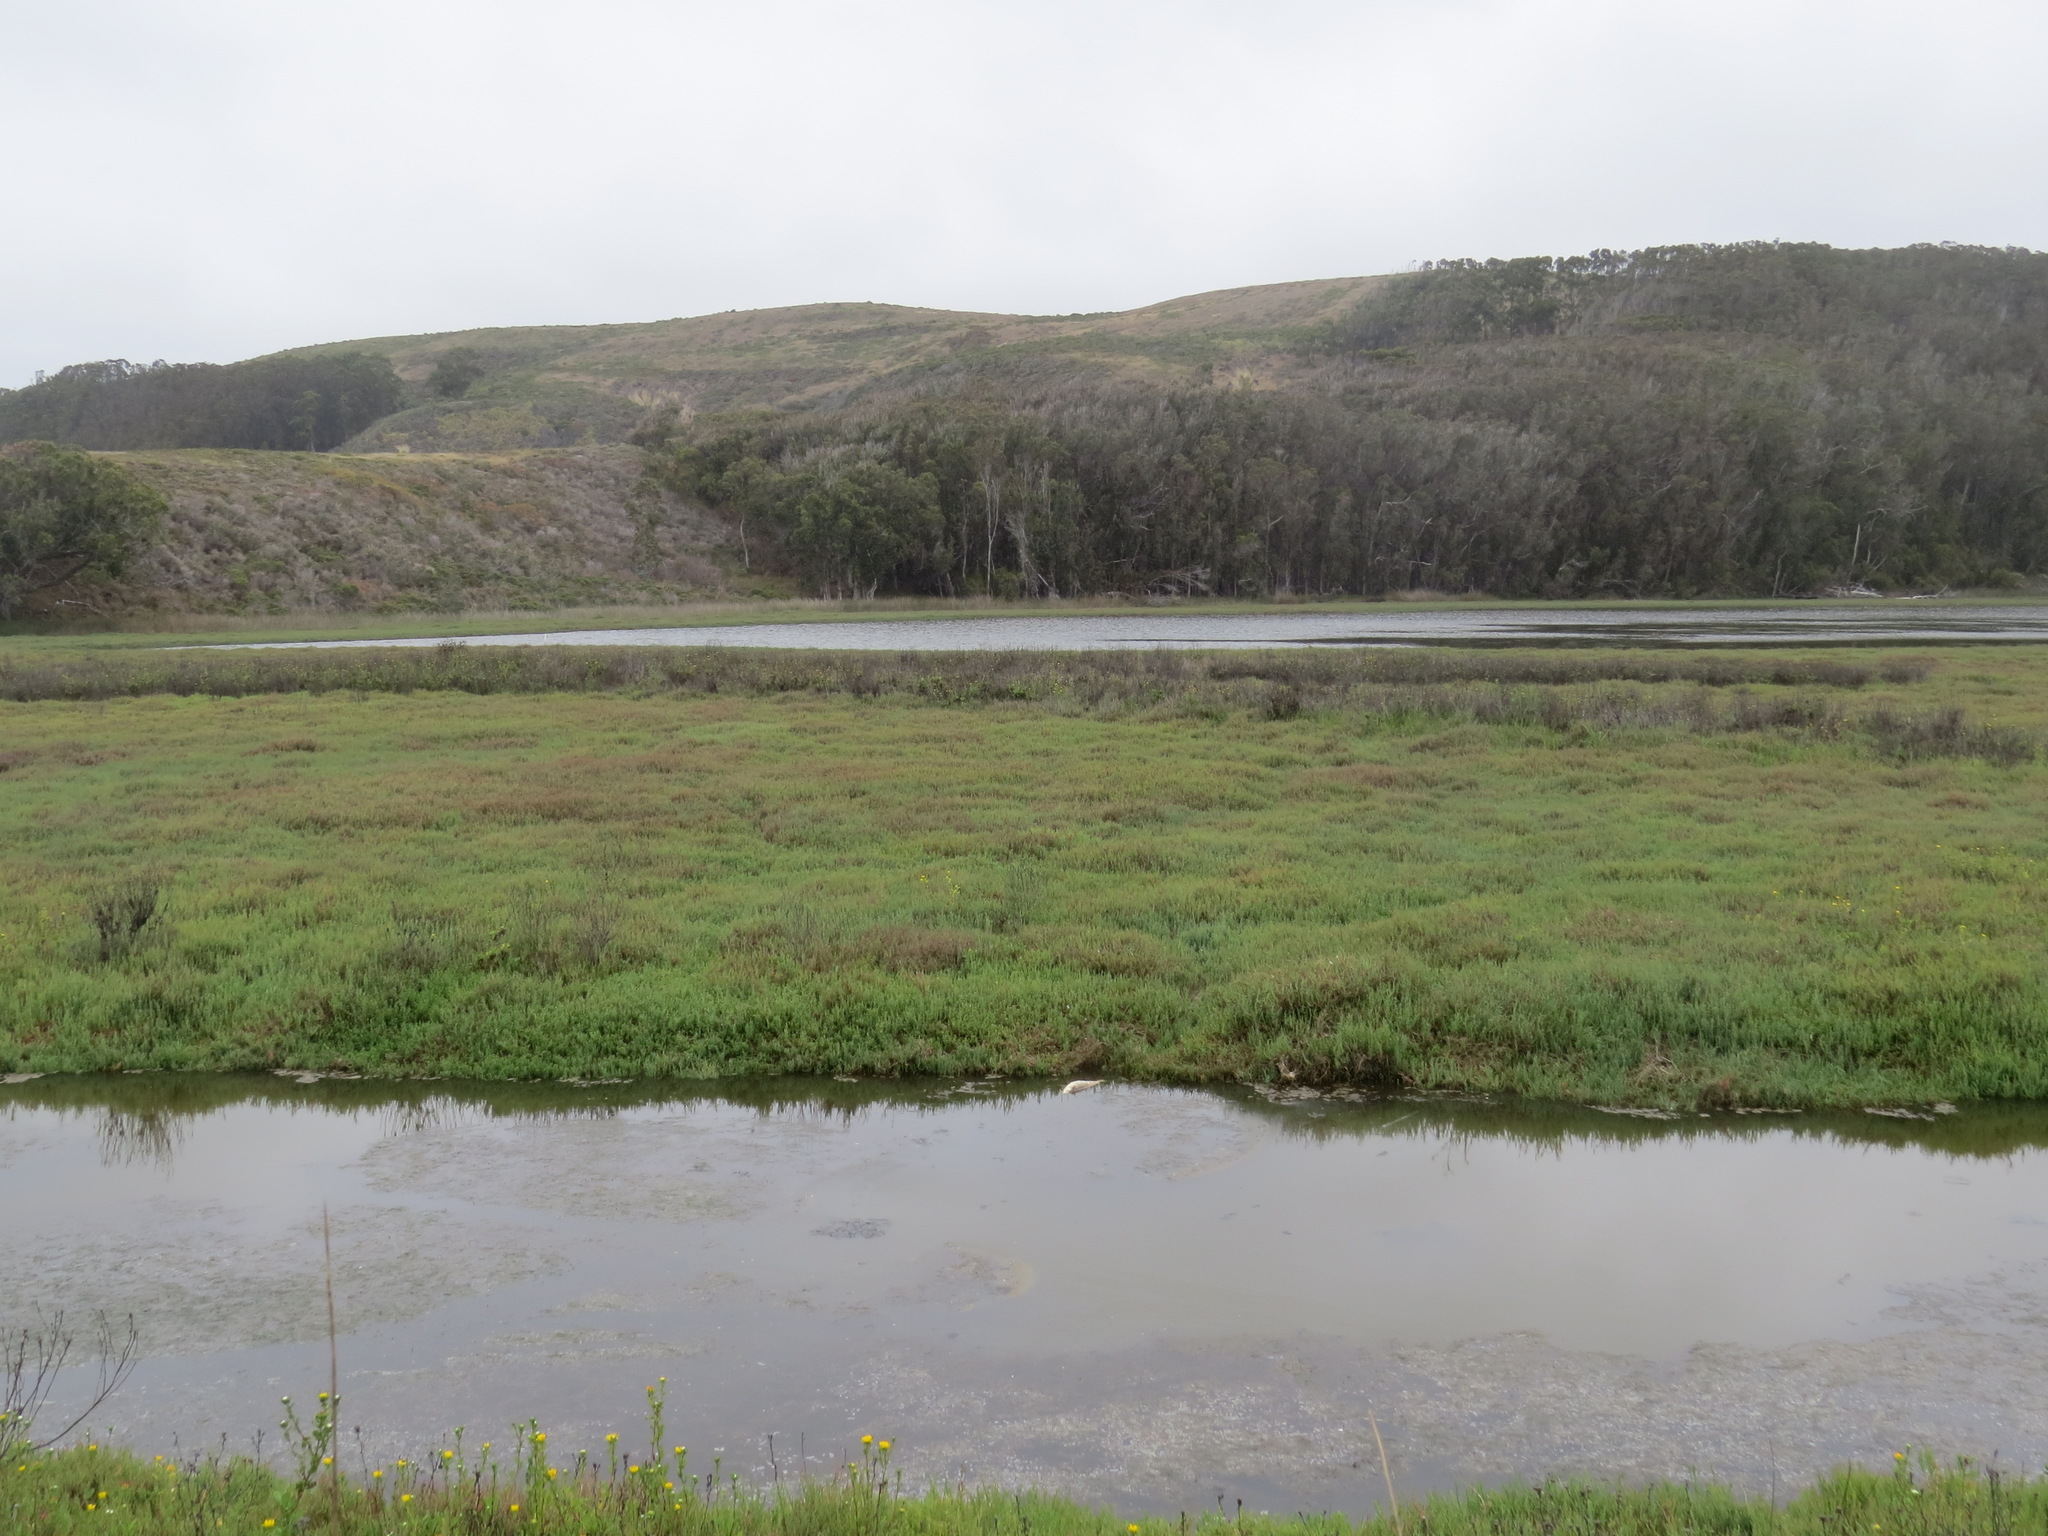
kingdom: Animalia
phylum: Chordata
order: Mugiliformes
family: Mugilidae
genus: Mugil
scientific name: Mugil cephalus
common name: Grey mullet
